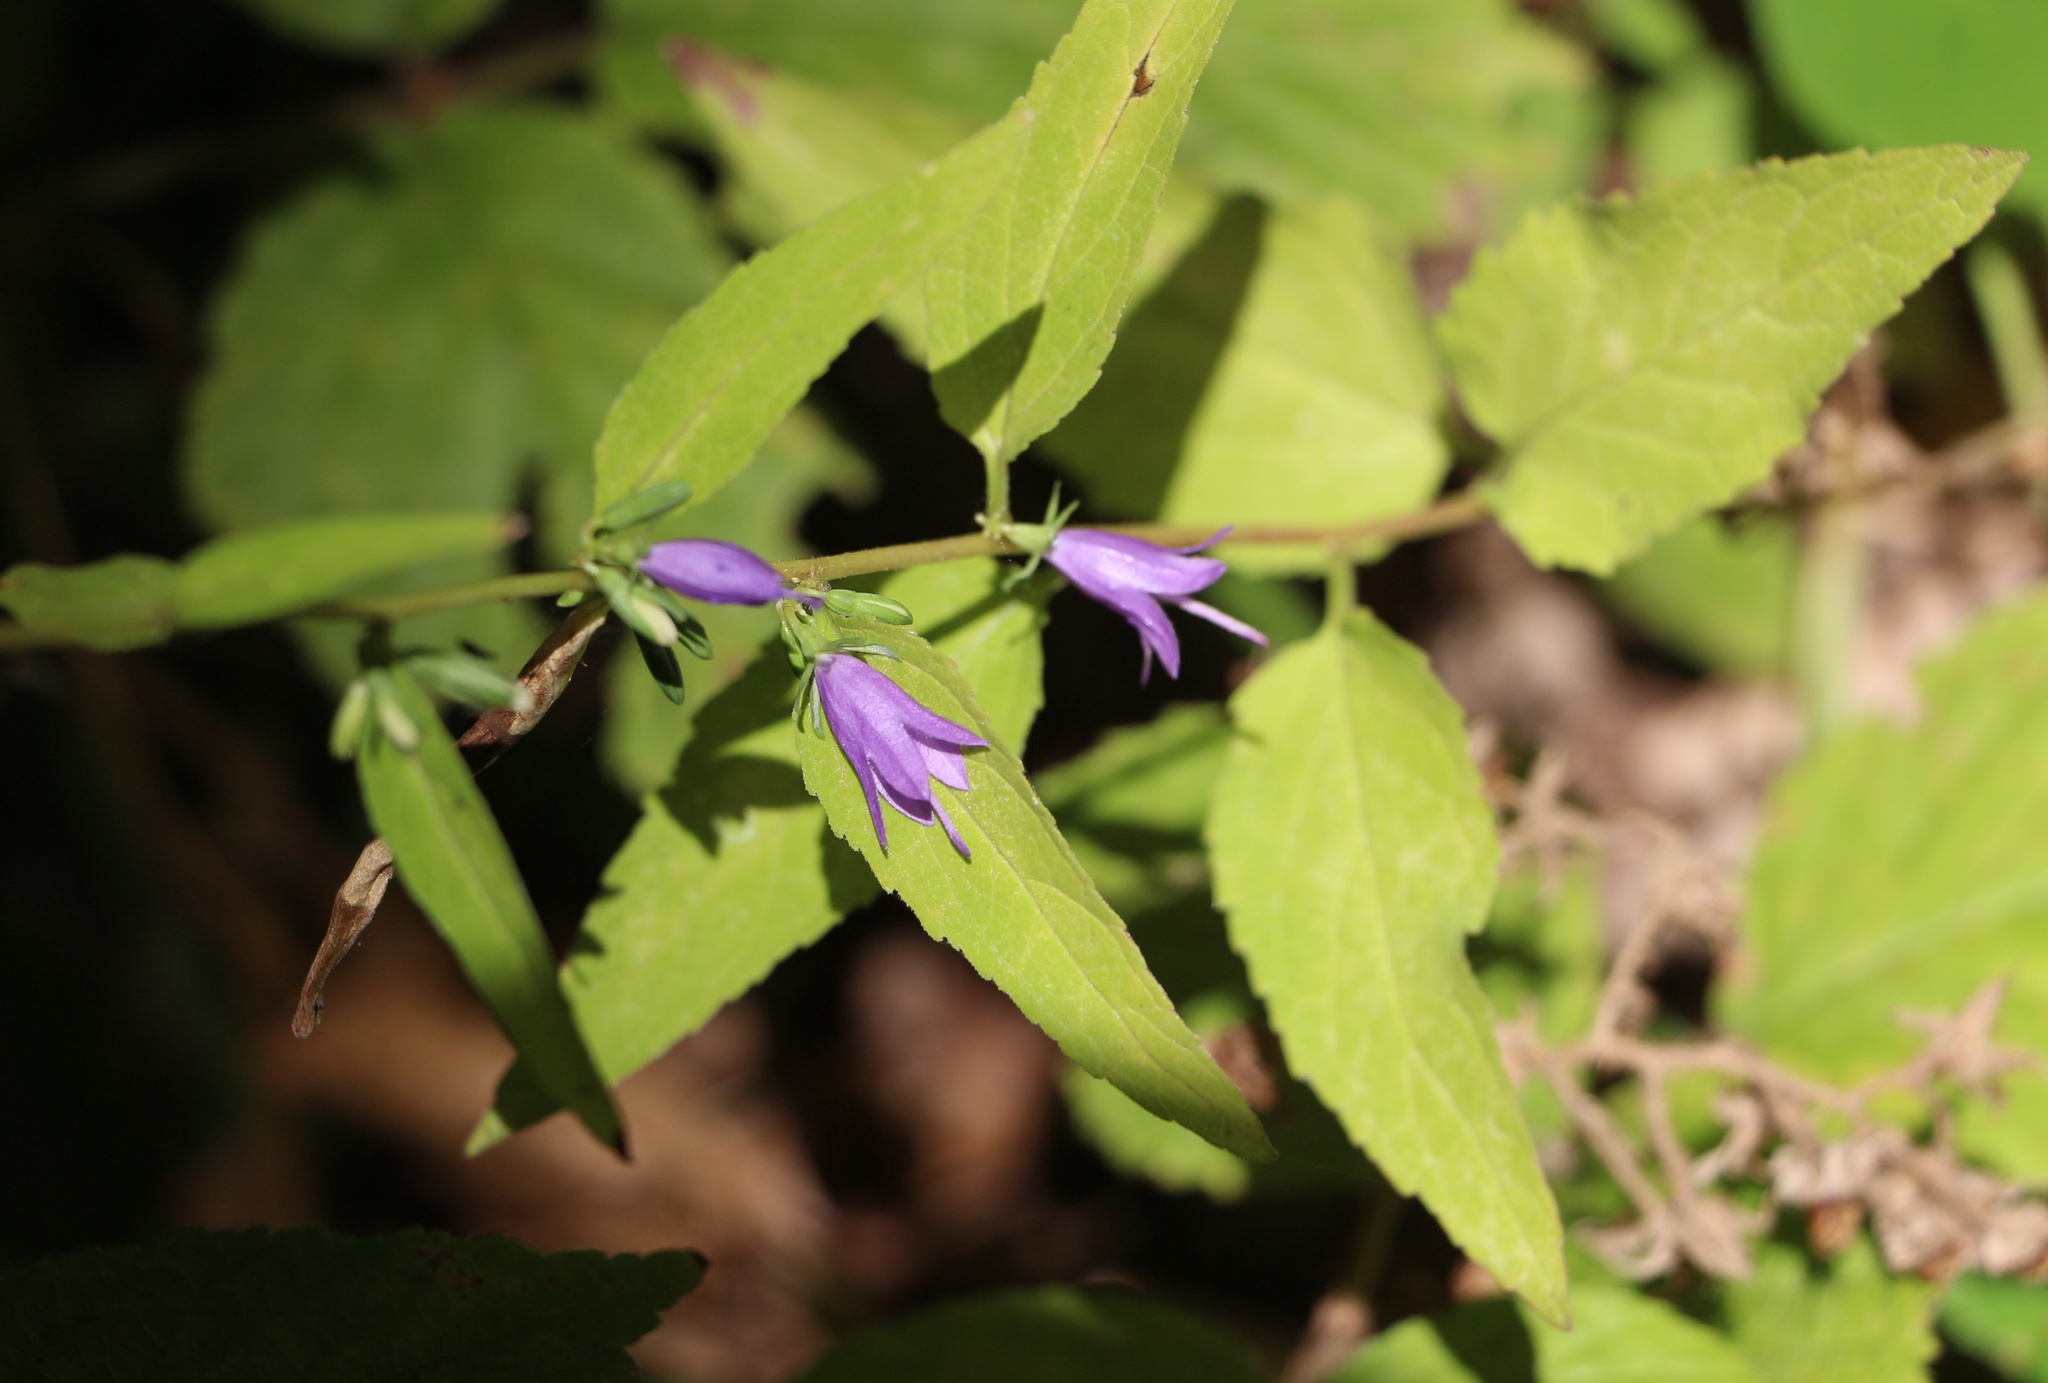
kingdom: Plantae
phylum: Tracheophyta
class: Magnoliopsida
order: Asterales
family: Campanulaceae
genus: Campanula
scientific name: Campanula rapunculoides
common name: Creeping bellflower
